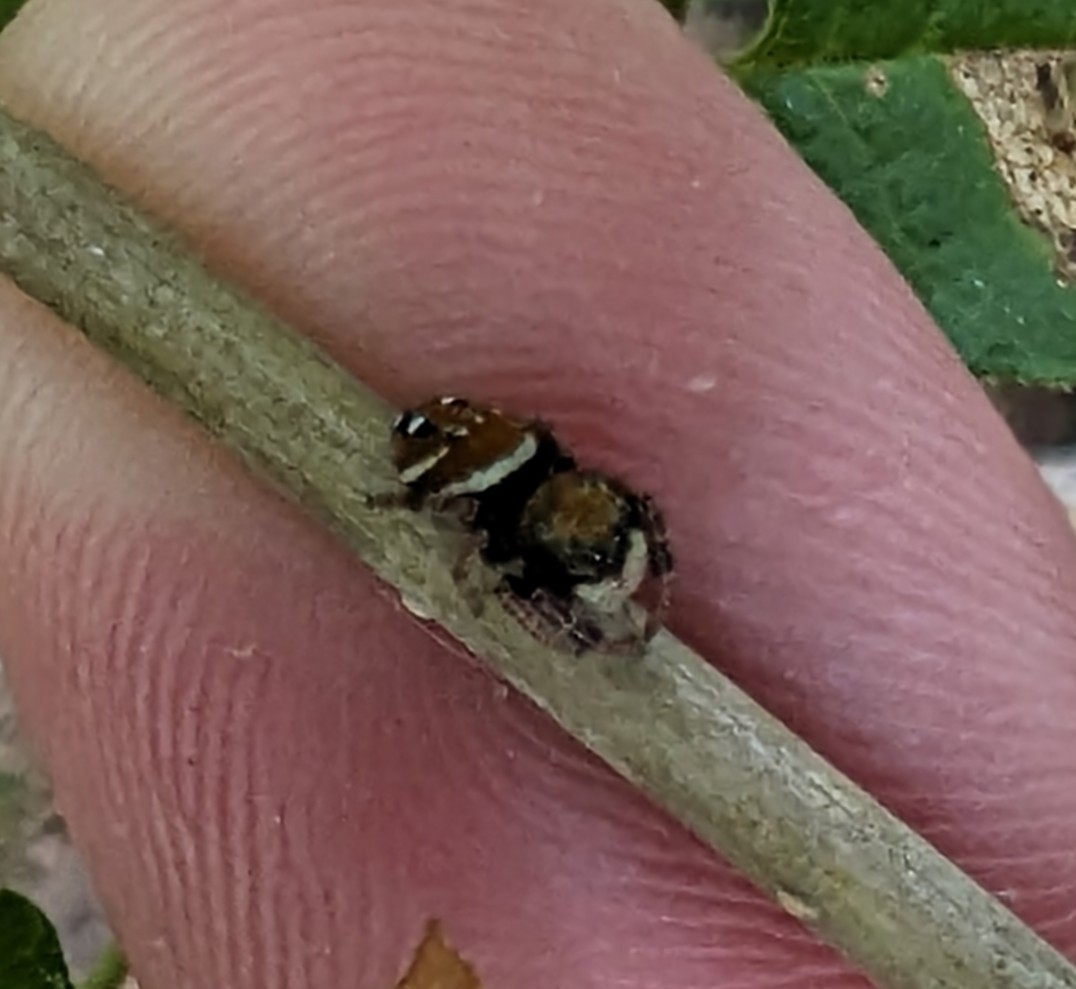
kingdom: Animalia
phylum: Arthropoda
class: Arachnida
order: Araneae
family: Salticidae
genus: Phidippus
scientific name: Phidippus whitmani
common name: Whitman's jumping spider
